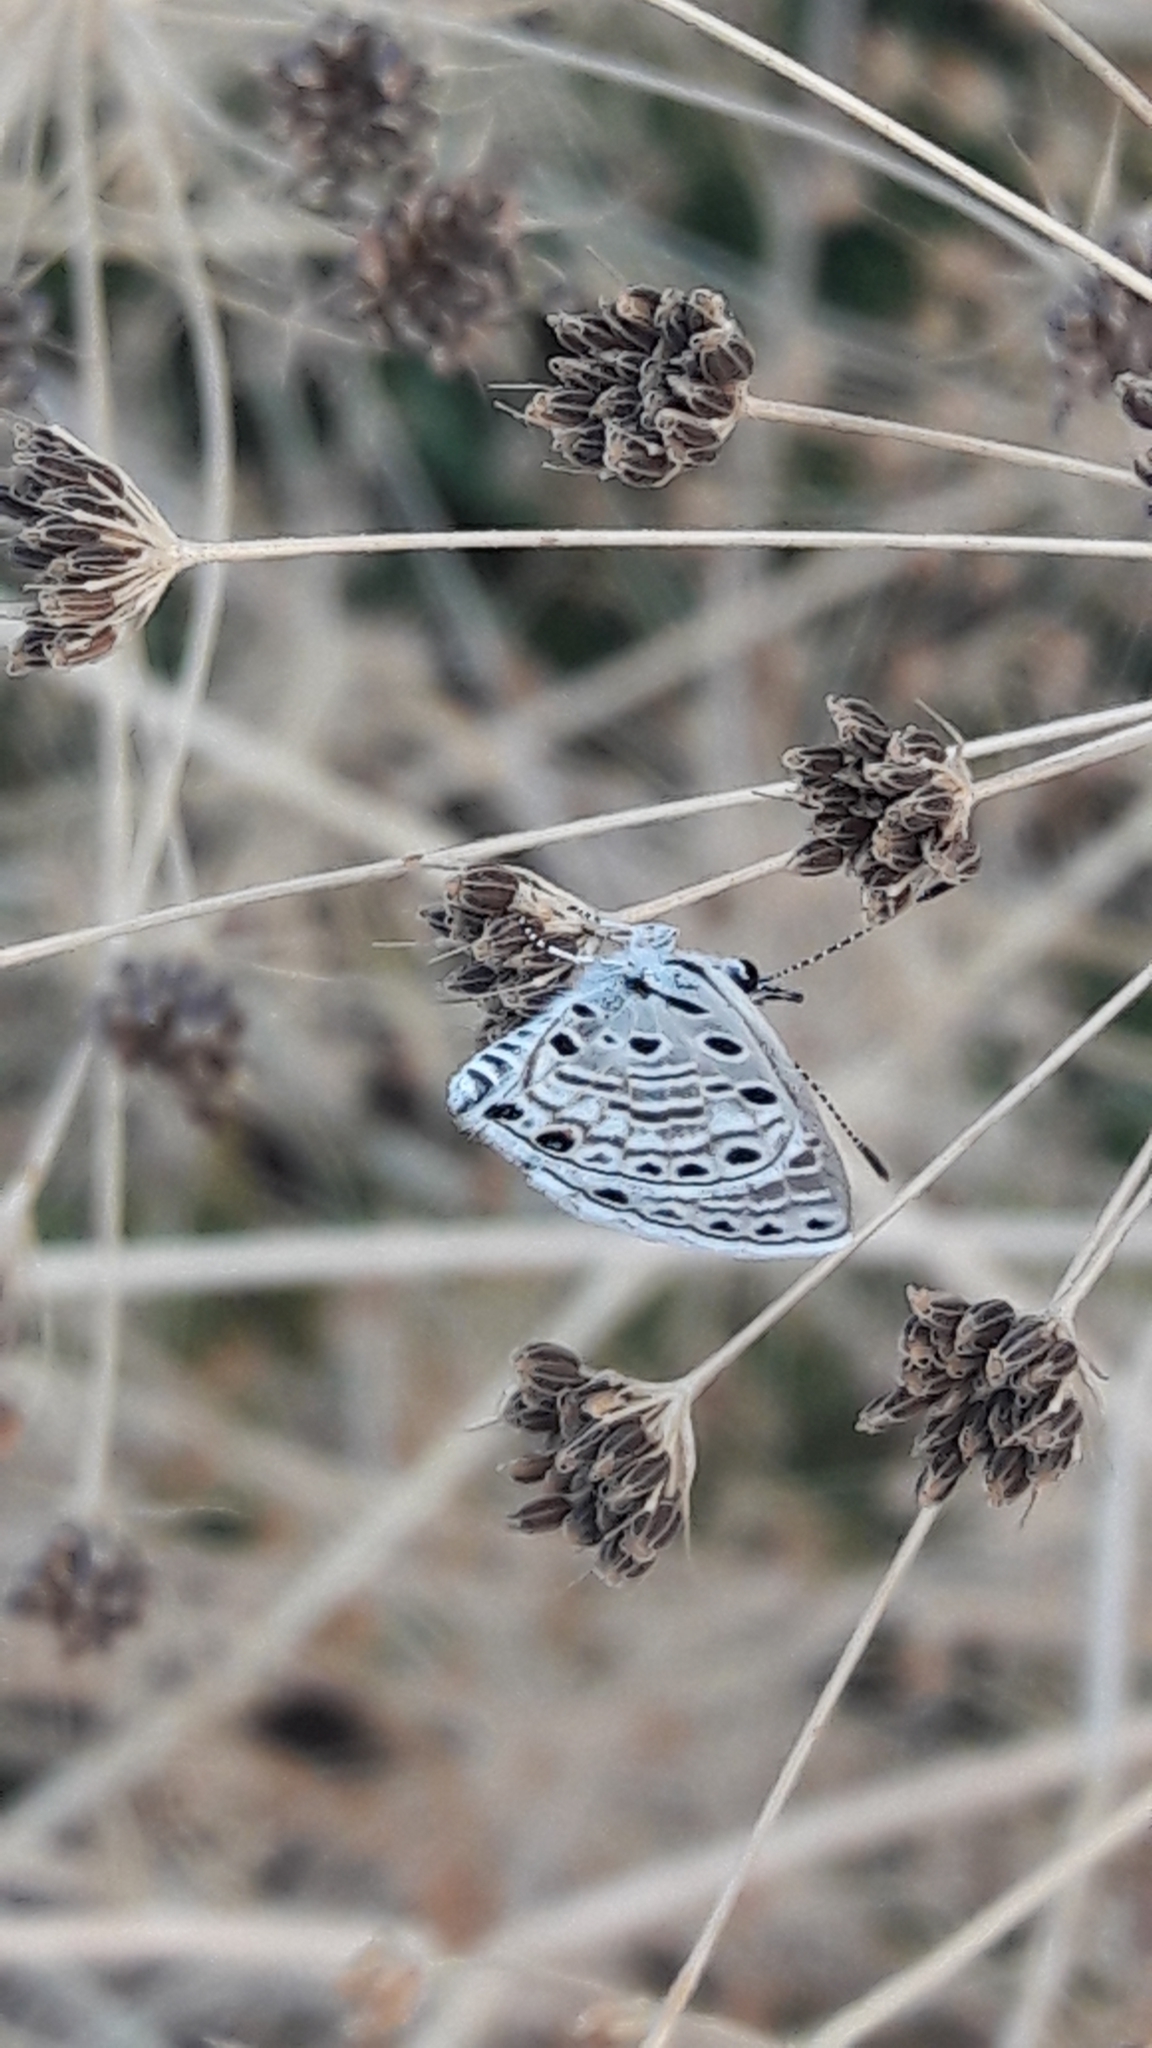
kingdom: Animalia
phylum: Arthropoda
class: Insecta
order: Lepidoptera
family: Lycaenidae
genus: Azanus
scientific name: Azanus jesous
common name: African babul blue
